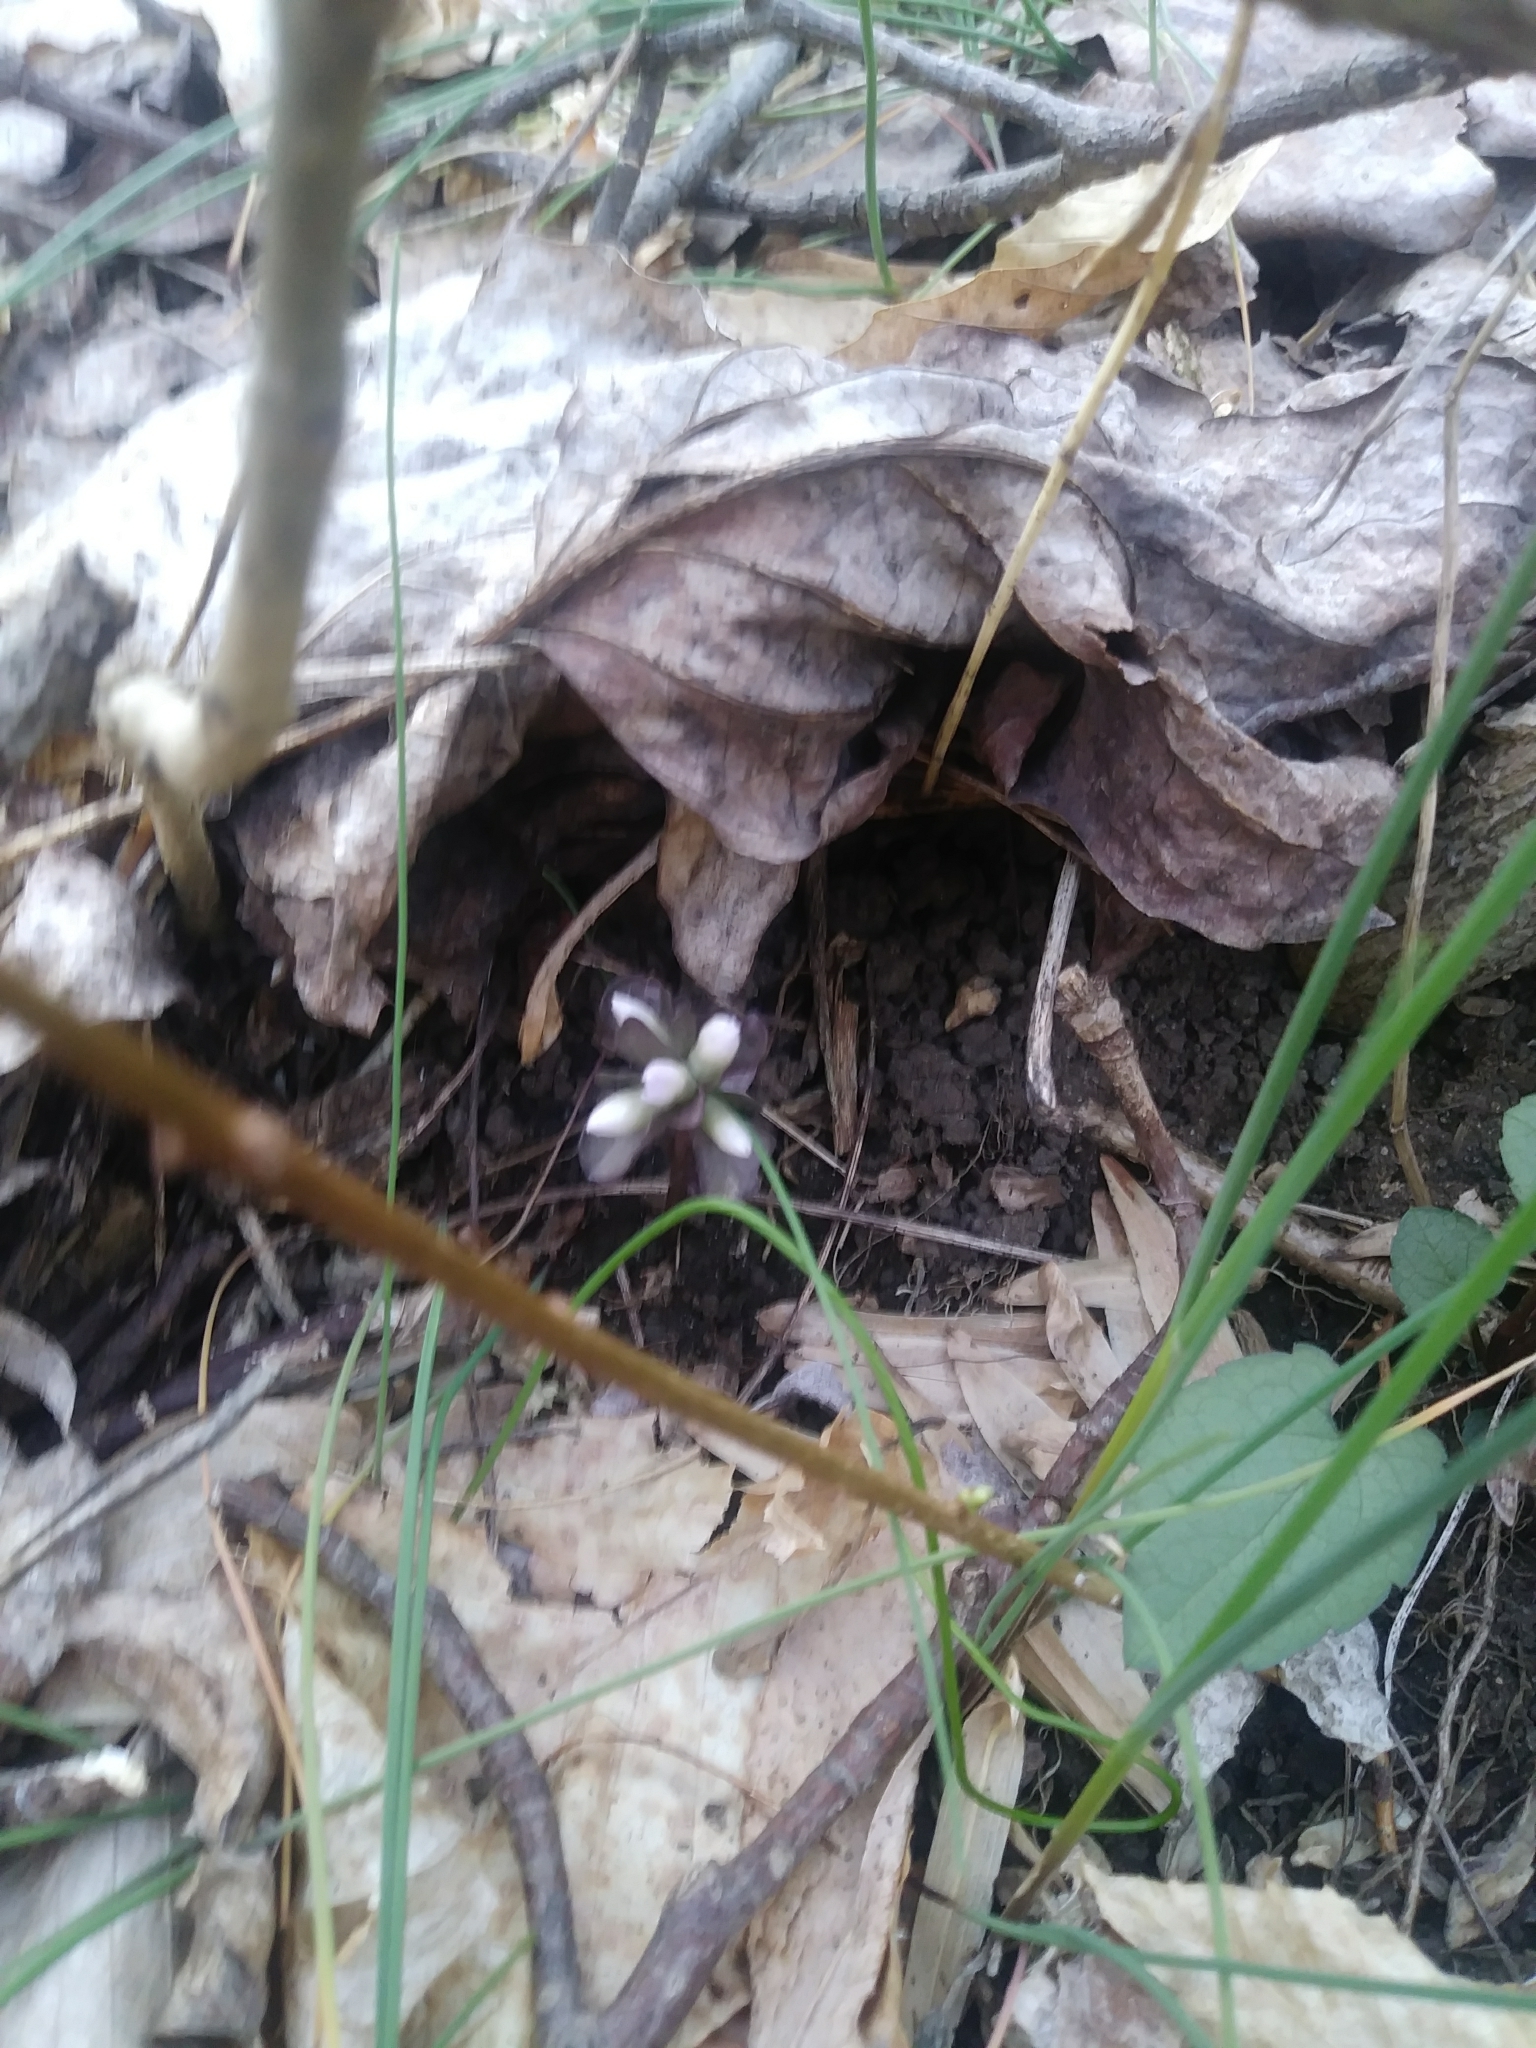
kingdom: Plantae
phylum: Tracheophyta
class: Magnoliopsida
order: Gentianales
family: Gentianaceae
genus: Obolaria
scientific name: Obolaria virginica
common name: Pennywort
